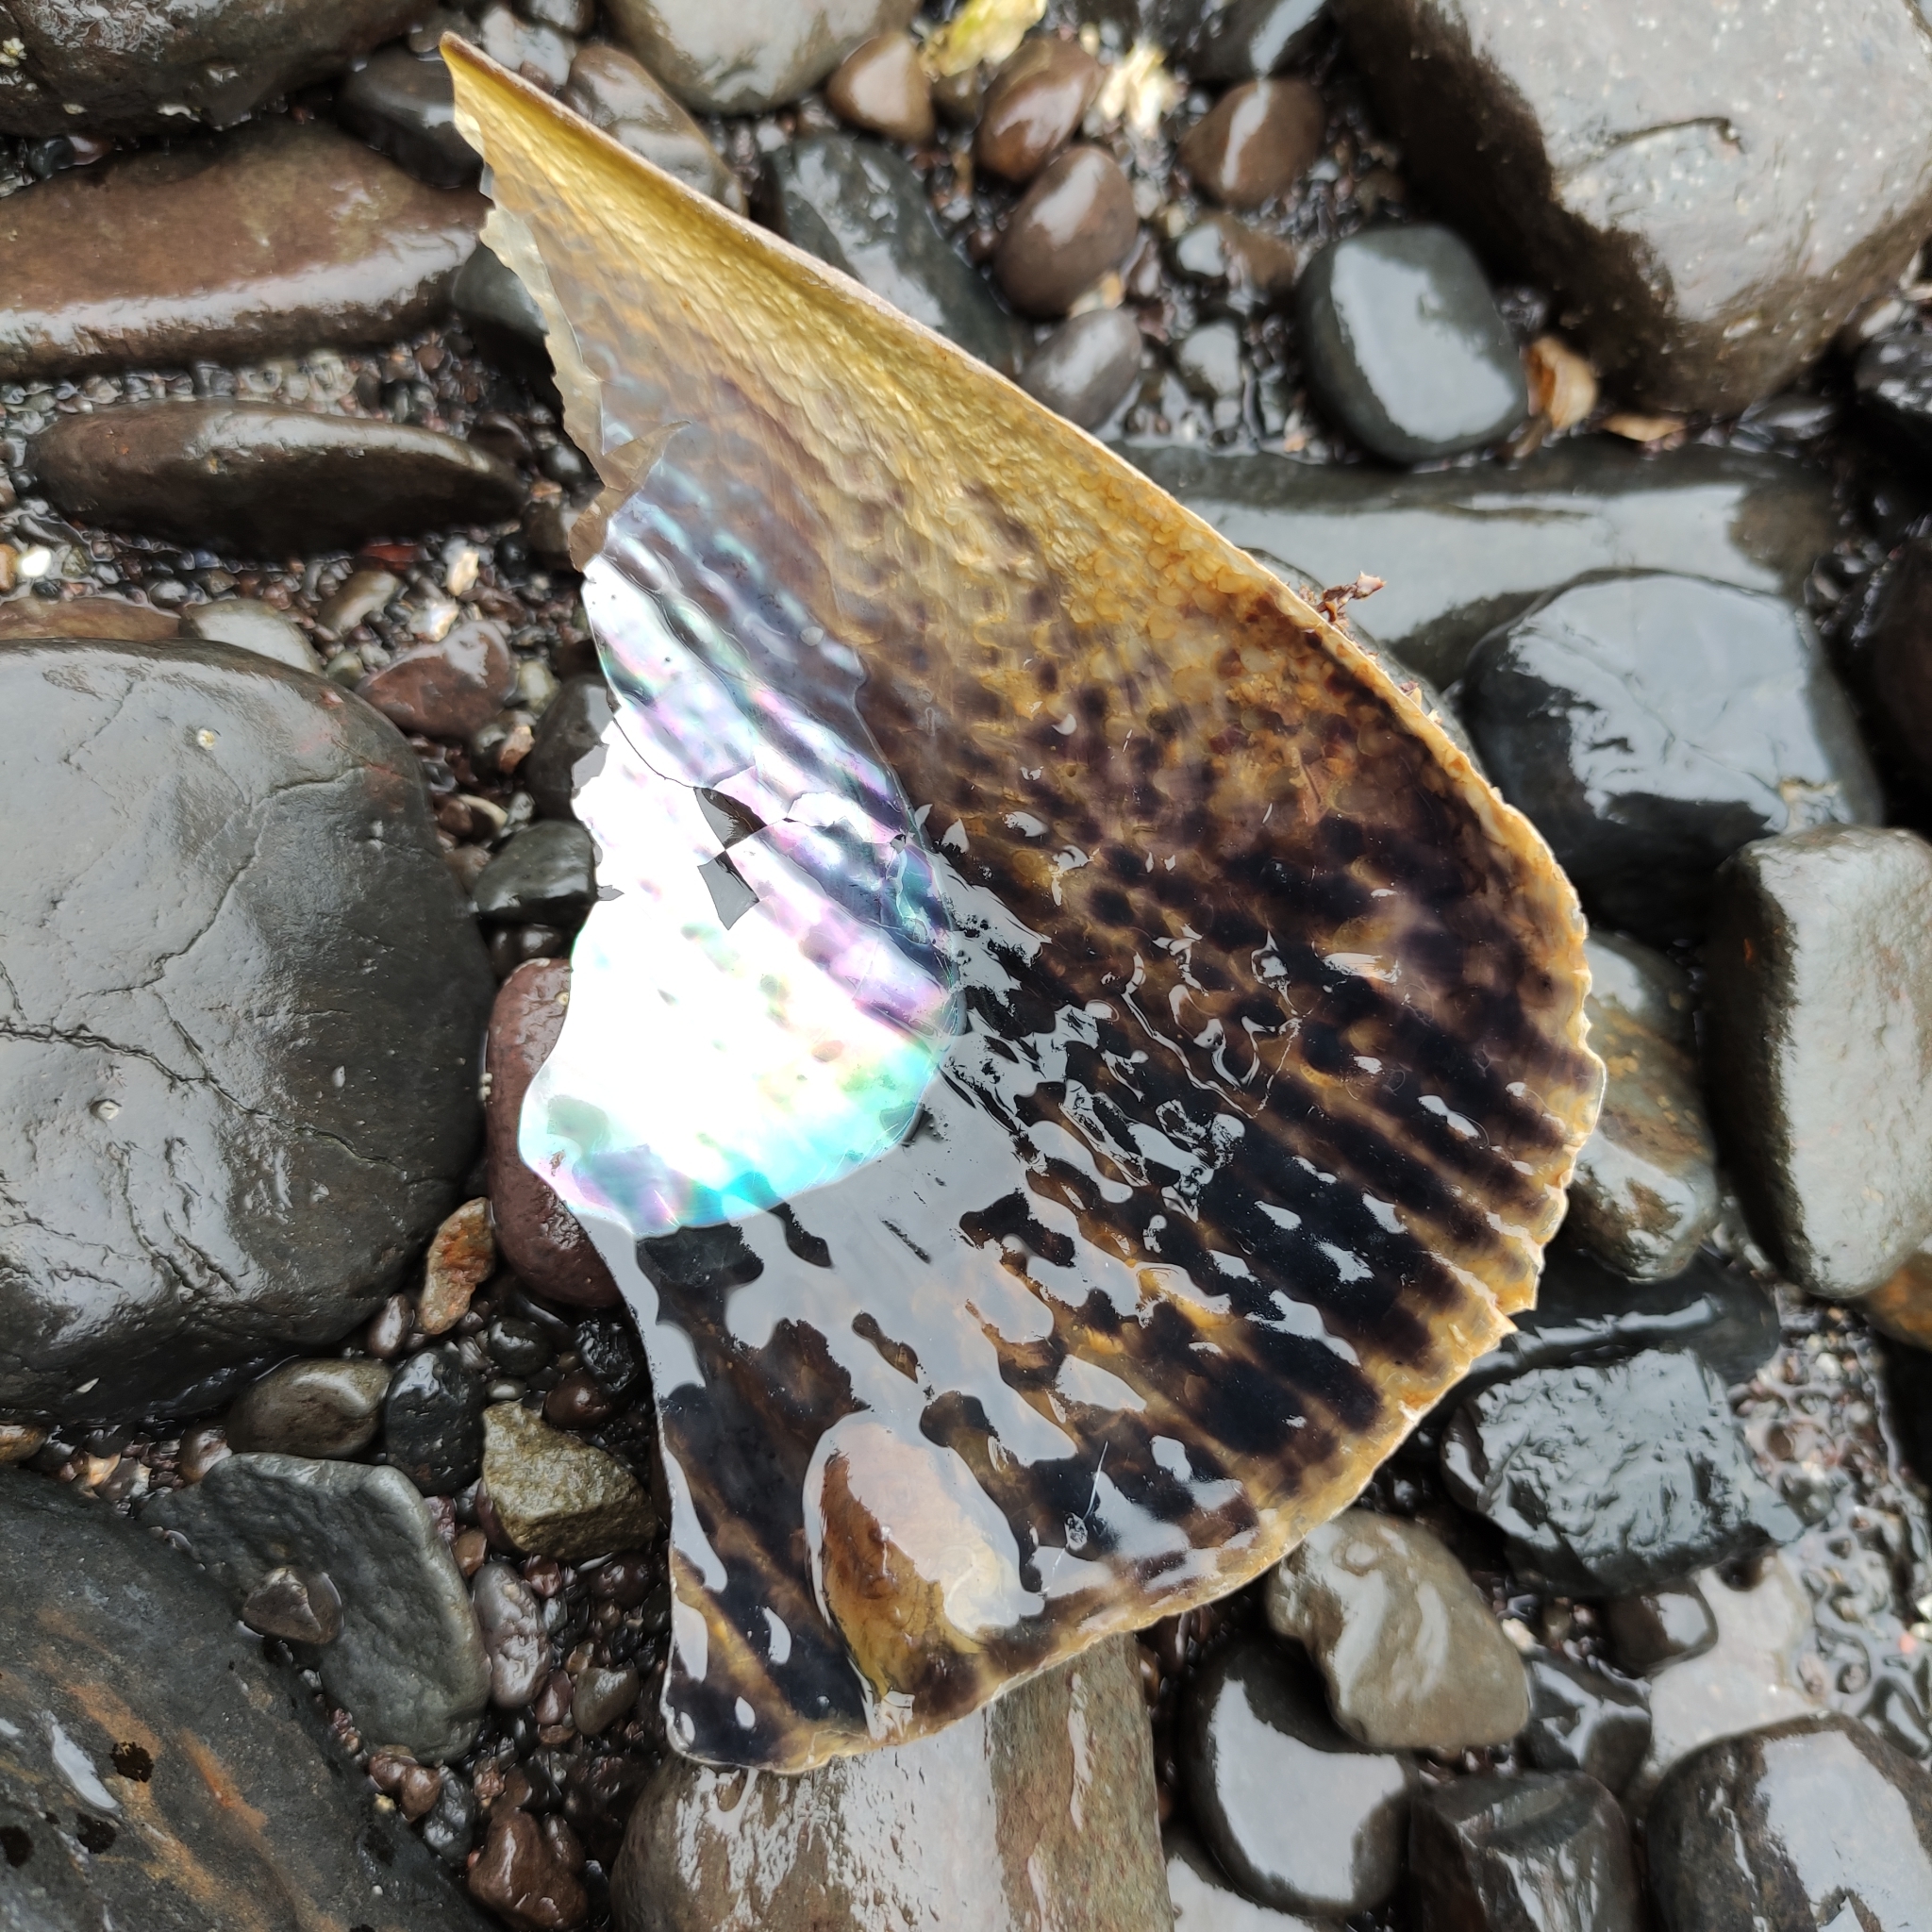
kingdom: Animalia
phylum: Mollusca
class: Bivalvia
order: Ostreida
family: Pinnidae
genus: Atrina
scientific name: Atrina zelandica
